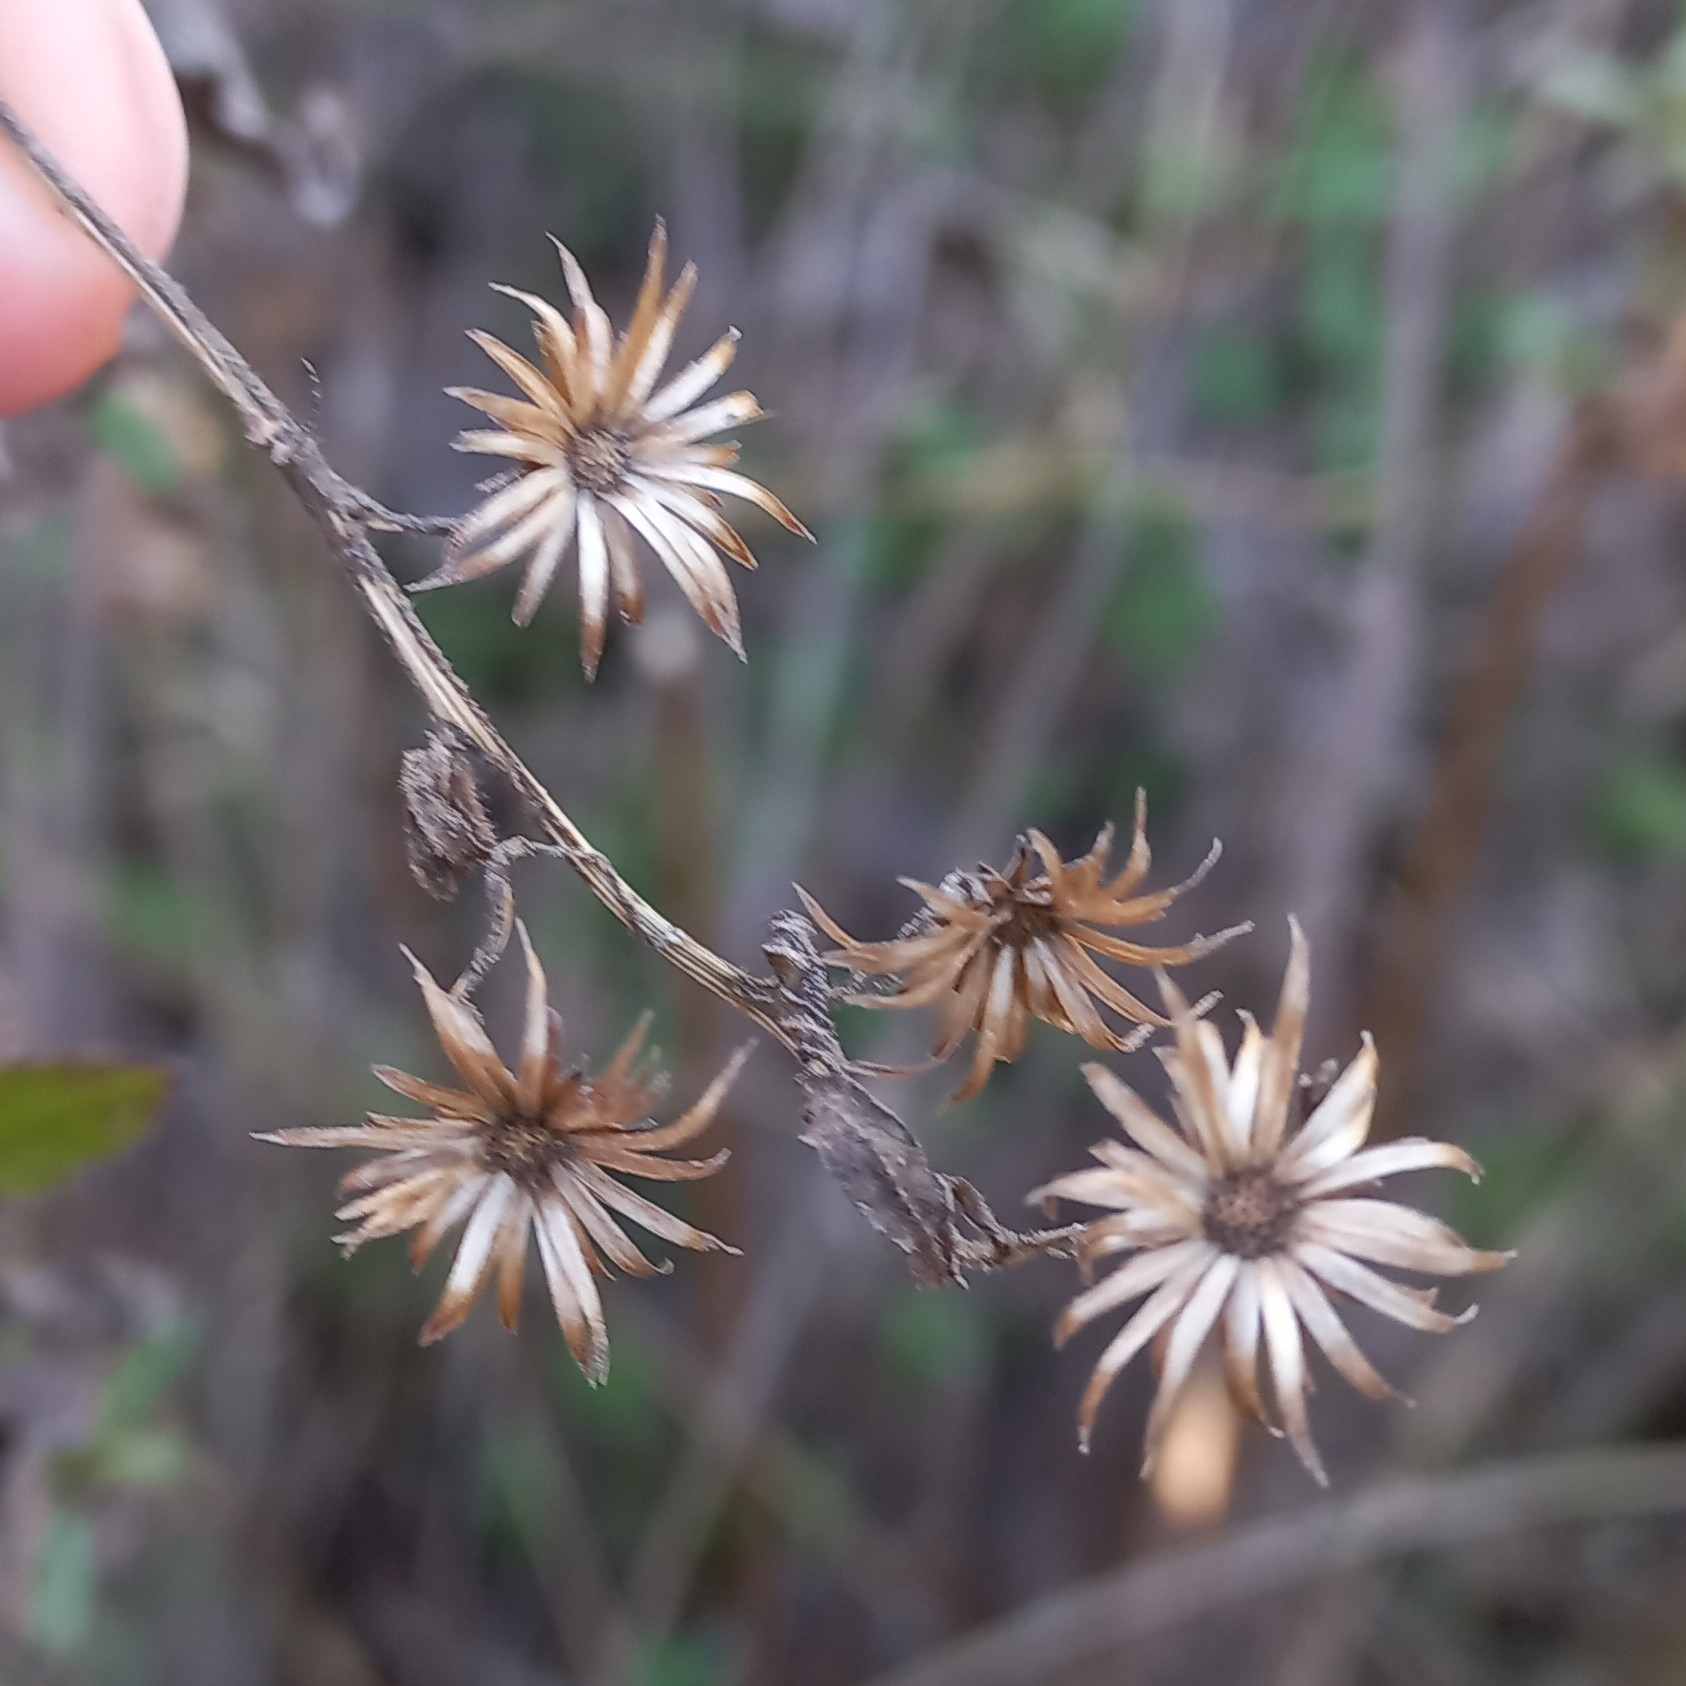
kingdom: Plantae
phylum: Tracheophyta
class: Magnoliopsida
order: Asterales
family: Asteraceae
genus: Dittrichia
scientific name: Dittrichia viscosa
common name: Woody fleabane
